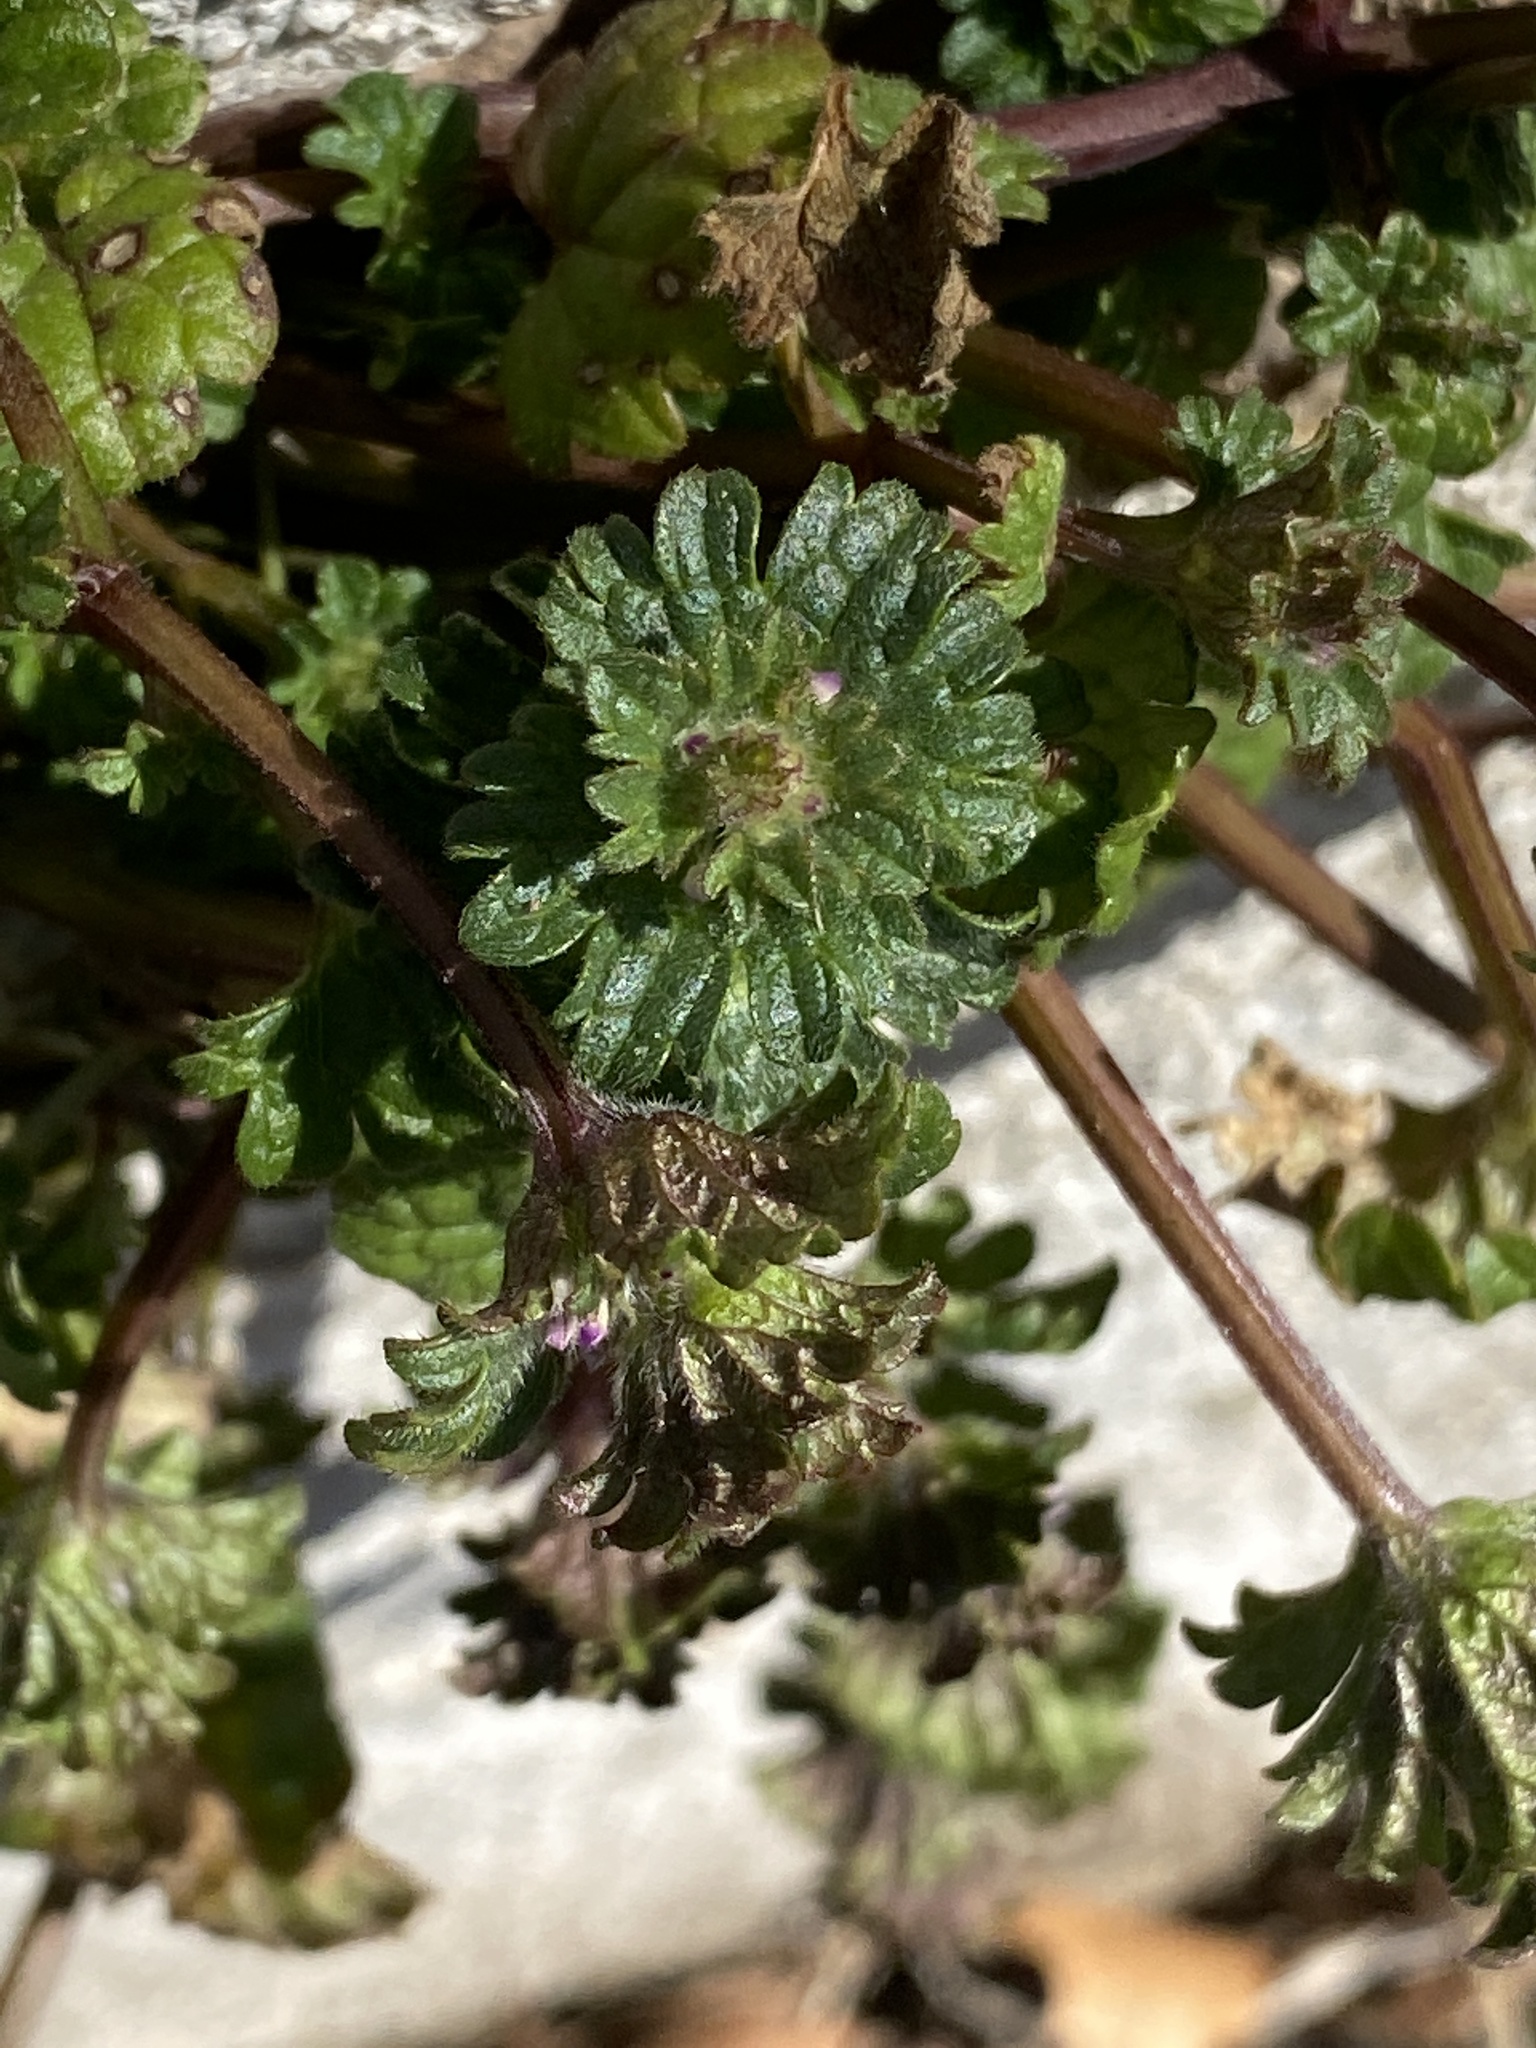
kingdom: Plantae
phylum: Tracheophyta
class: Magnoliopsida
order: Lamiales
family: Lamiaceae
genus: Lamium
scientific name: Lamium amplexicaule
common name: Henbit dead-nettle
